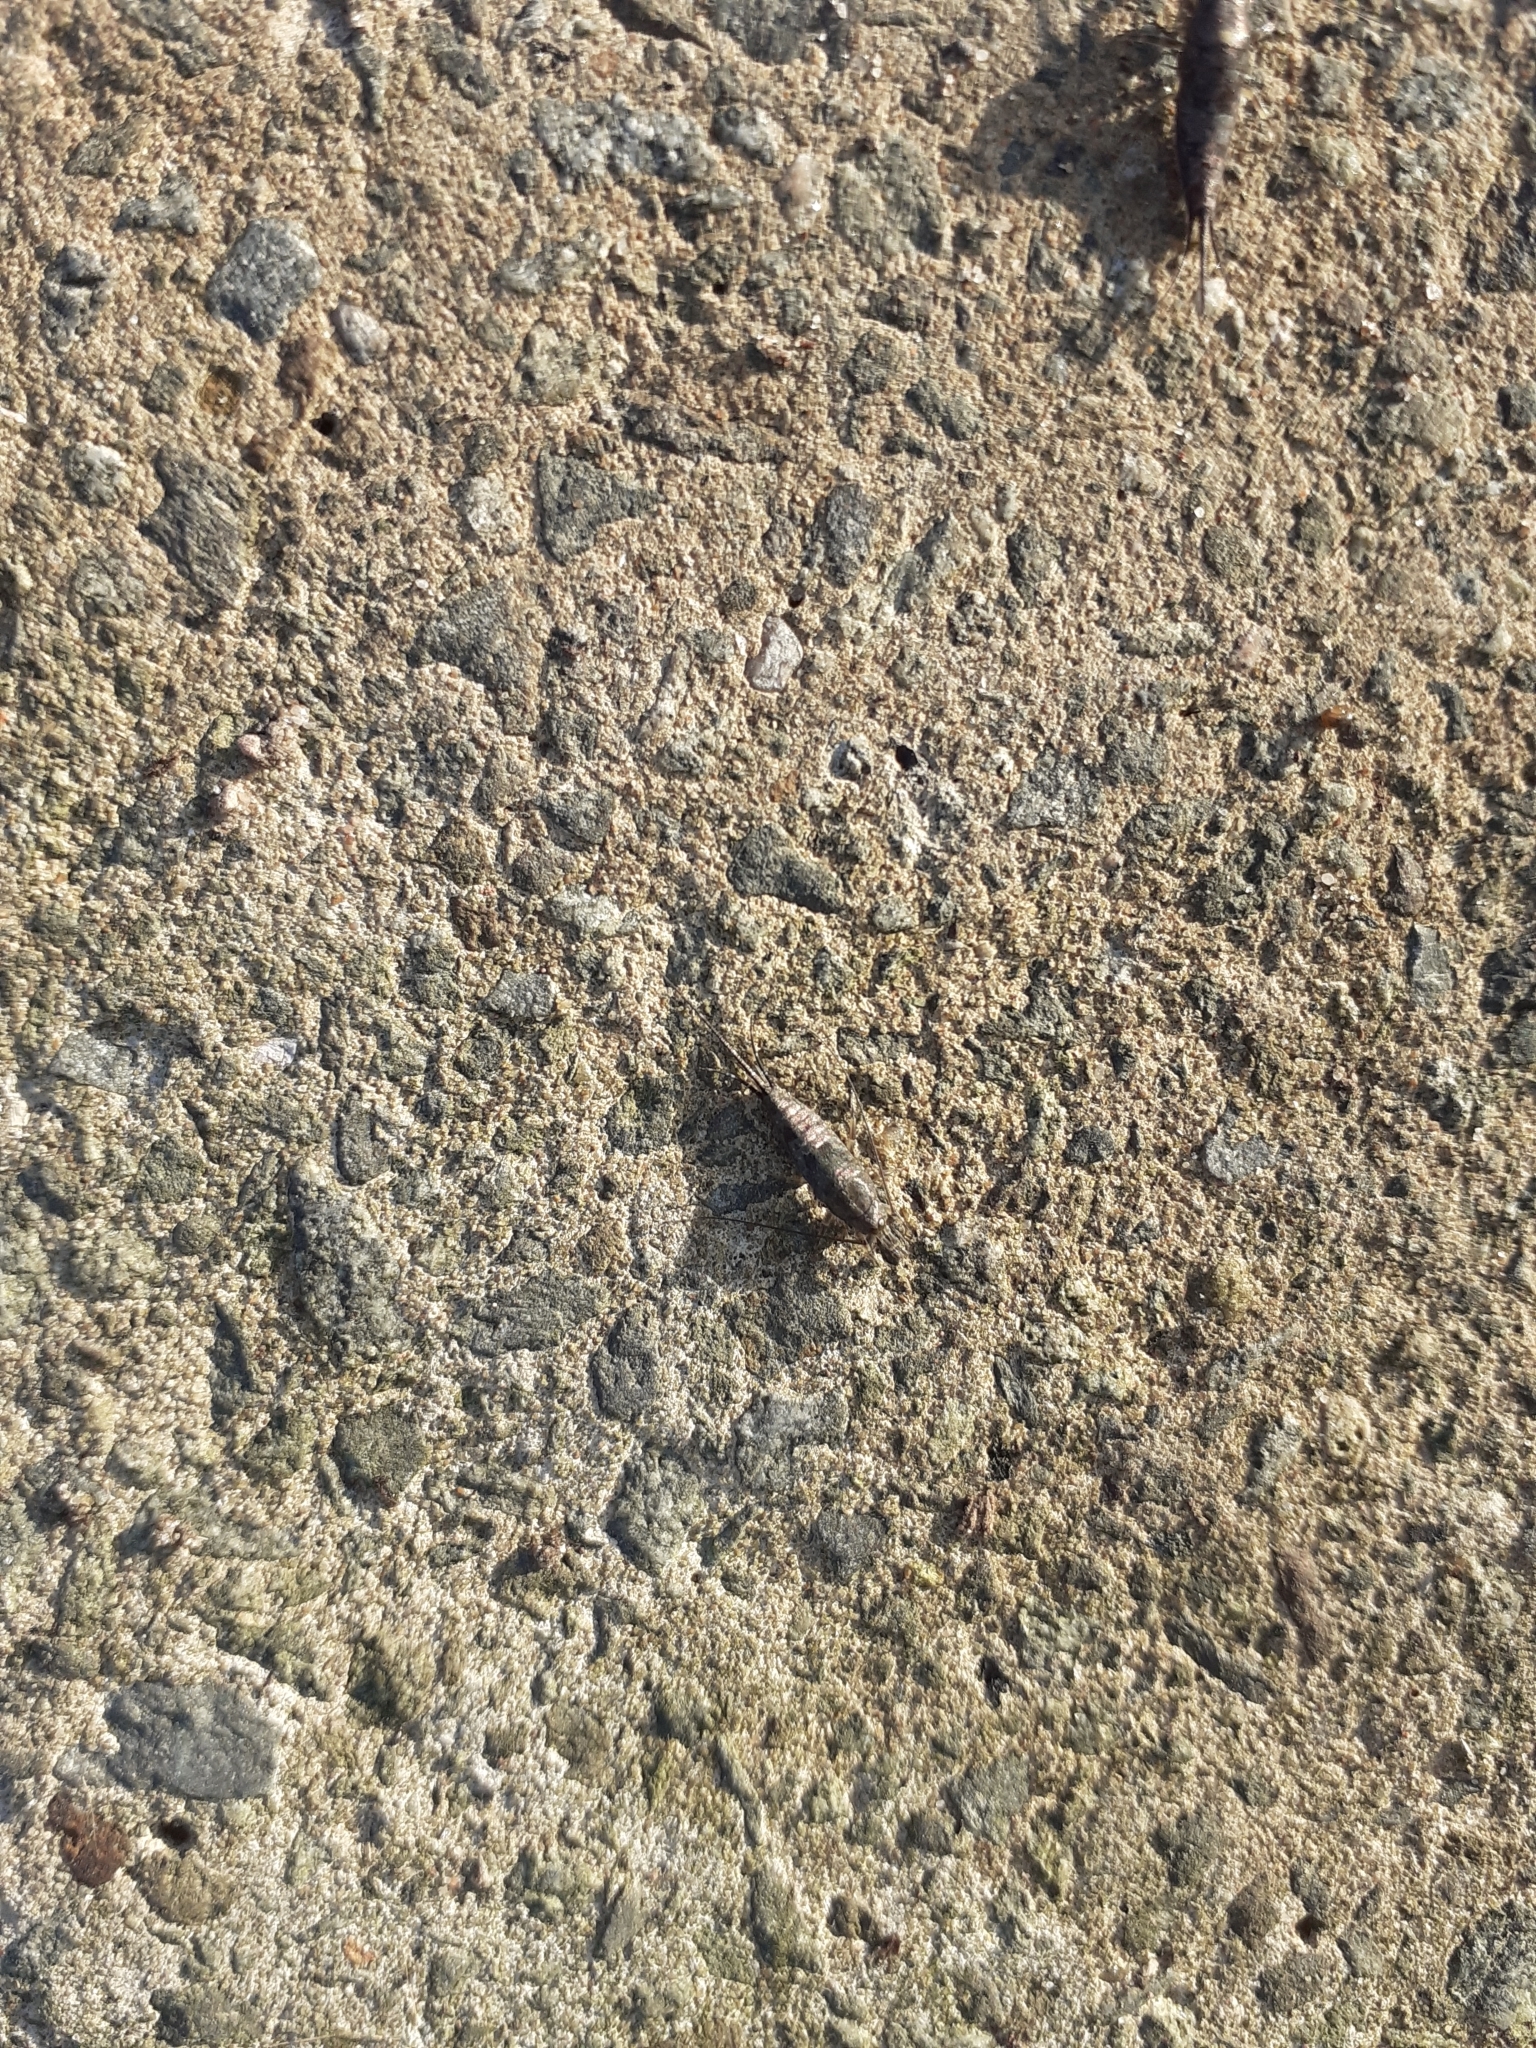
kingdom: Animalia
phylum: Arthropoda
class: Insecta
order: Archaeognatha
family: Machilidae
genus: Petrobius
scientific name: Petrobius maritimus
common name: Sea bristletail
